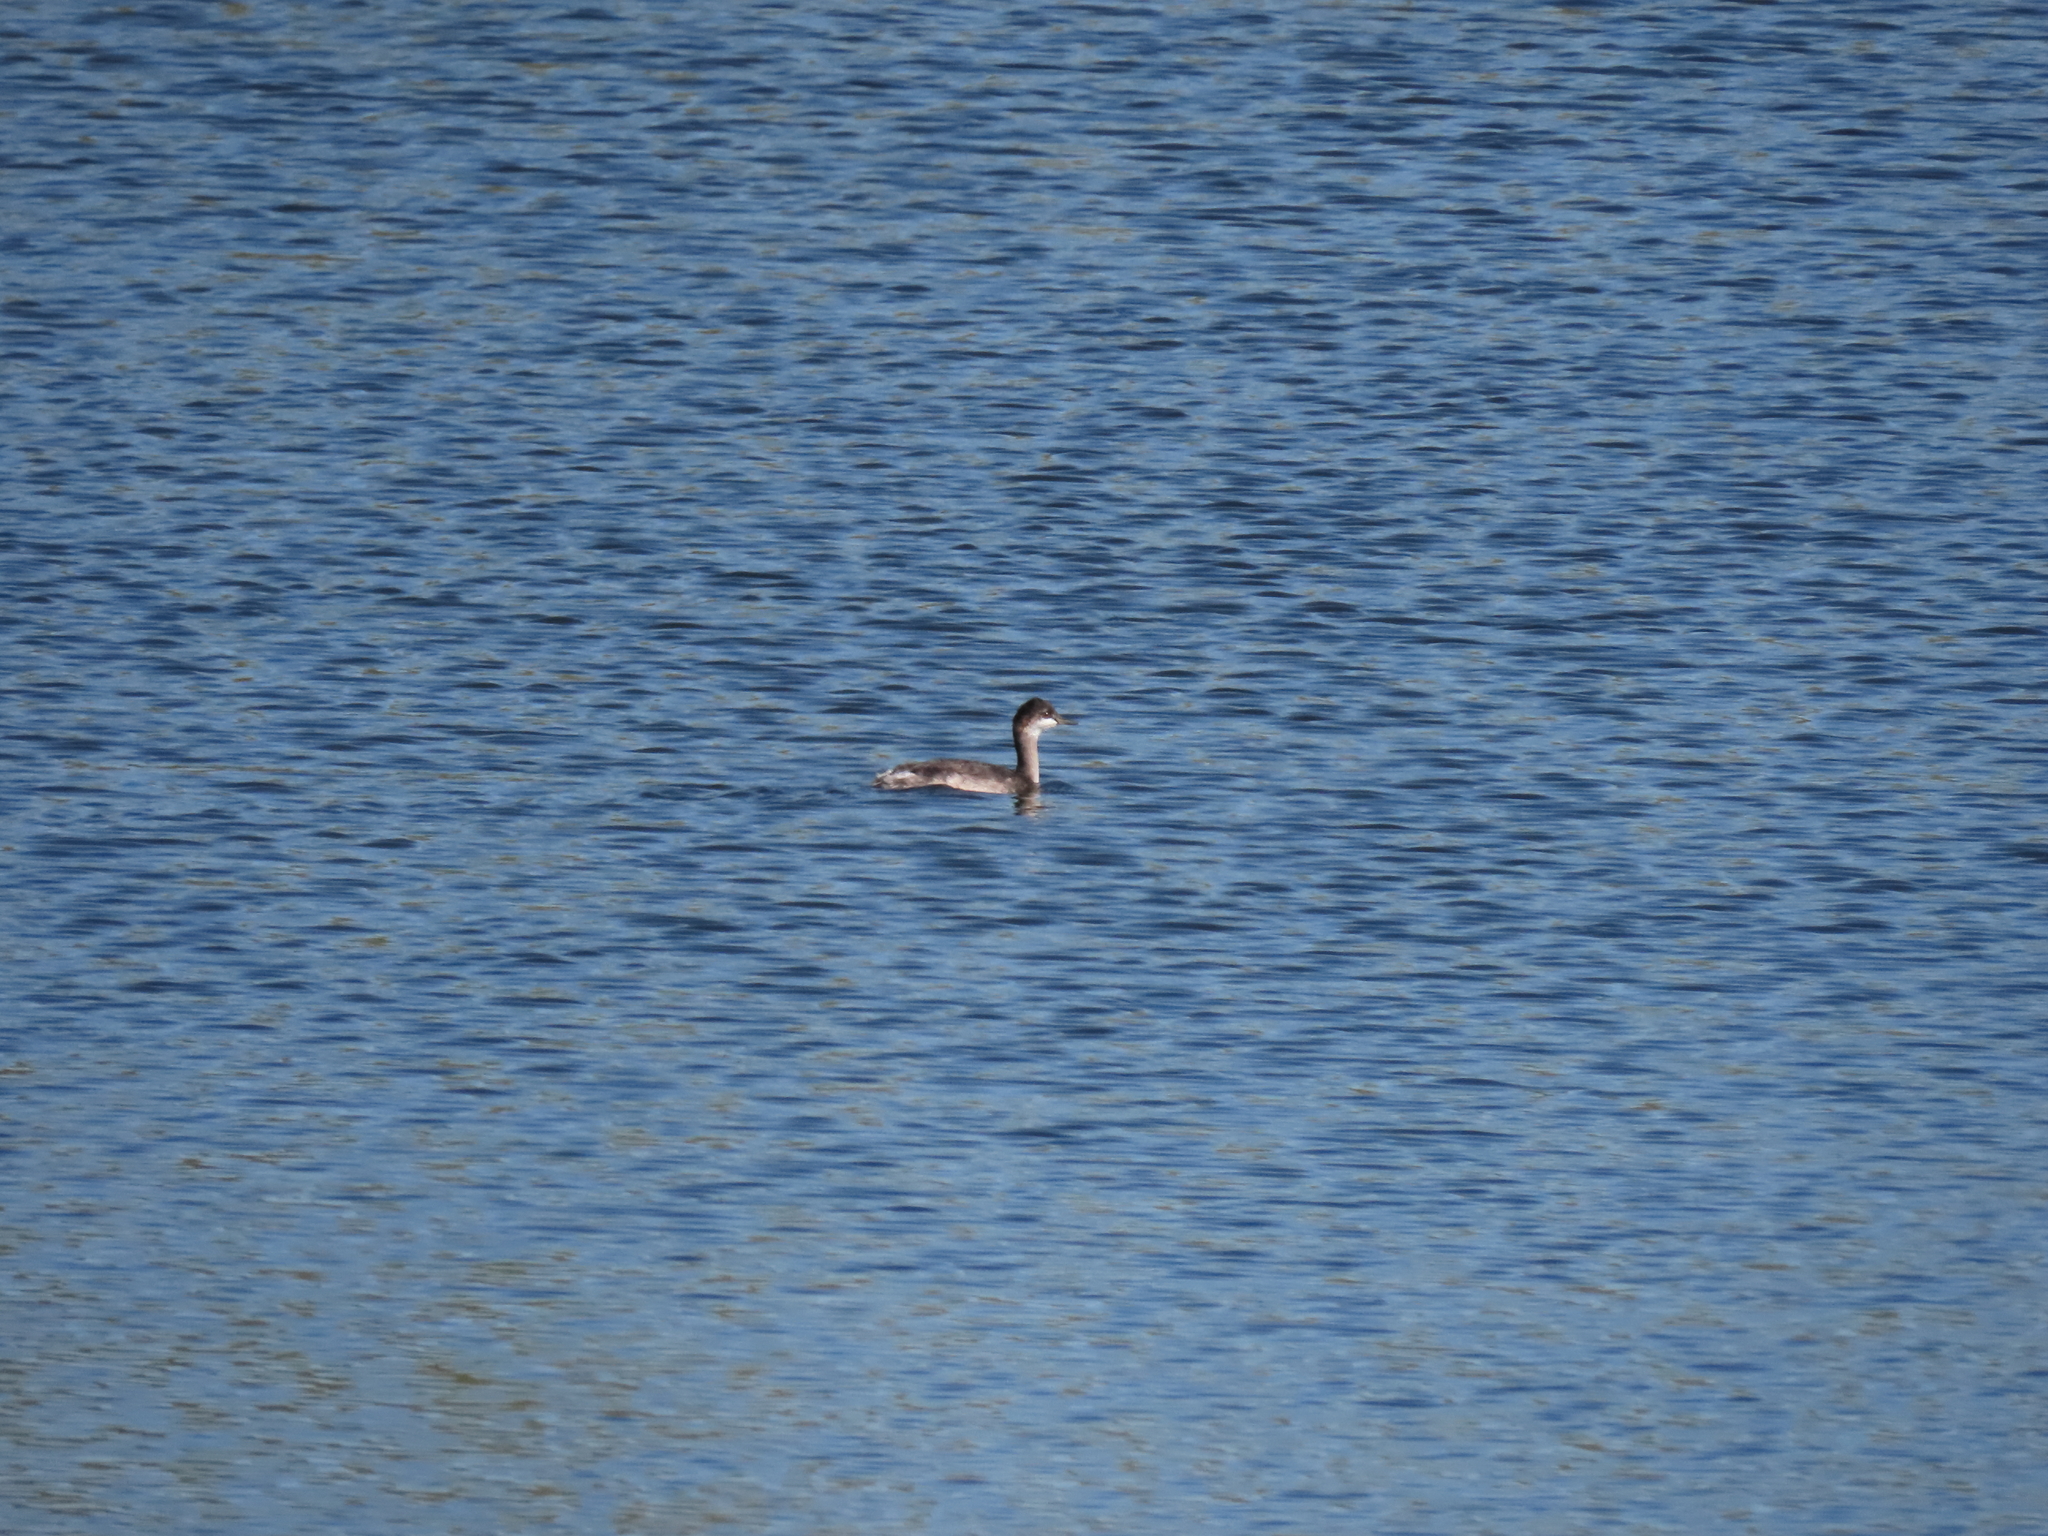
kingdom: Animalia
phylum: Chordata
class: Aves
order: Podicipediformes
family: Podicipedidae
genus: Podiceps
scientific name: Podiceps nigricollis
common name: Black-necked grebe
